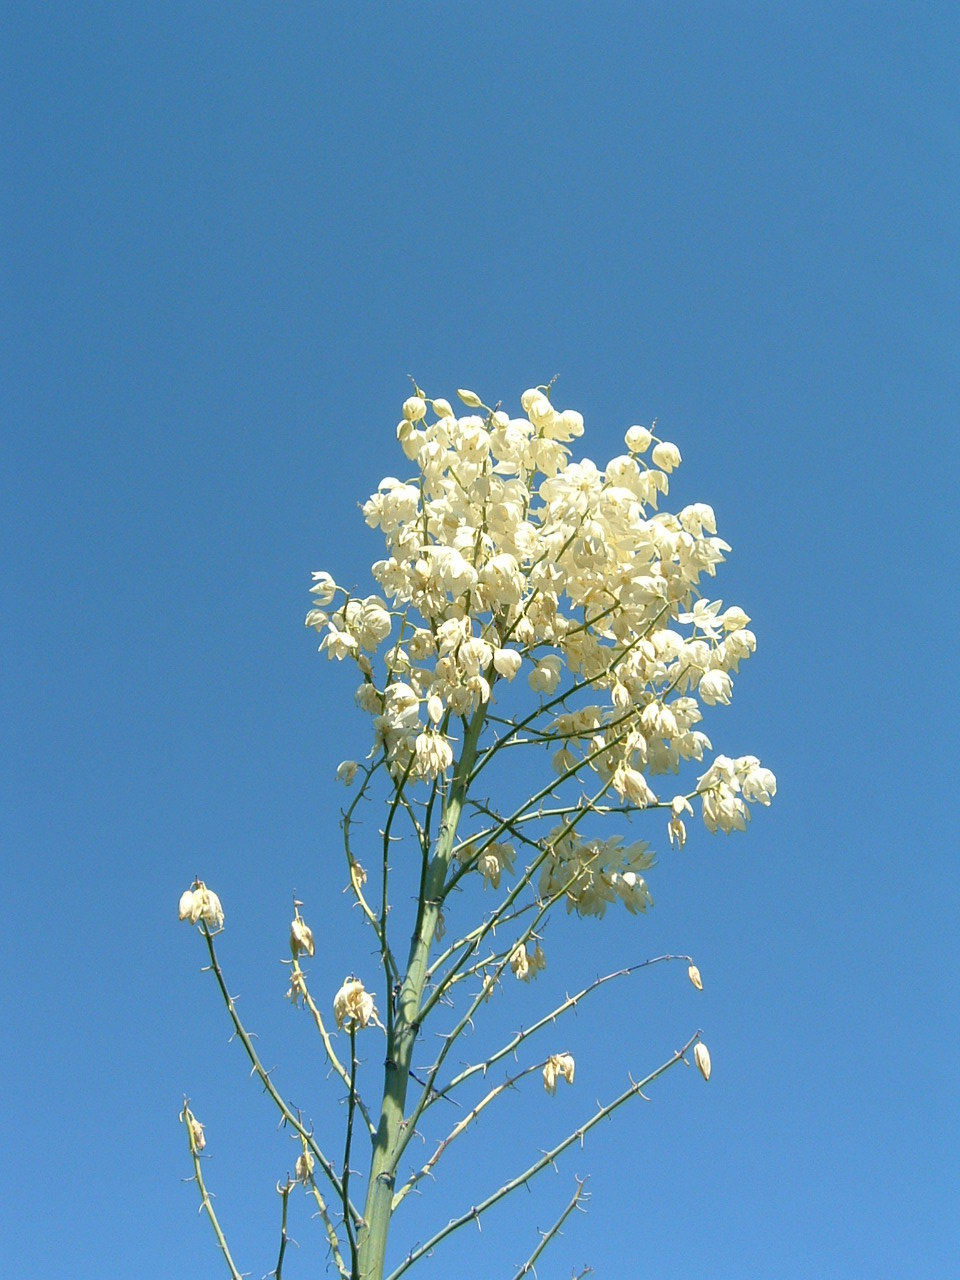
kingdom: Plantae
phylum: Tracheophyta
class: Liliopsida
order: Asparagales
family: Asparagaceae
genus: Hesperoyucca
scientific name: Hesperoyucca whipplei
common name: Our lord's-candle
